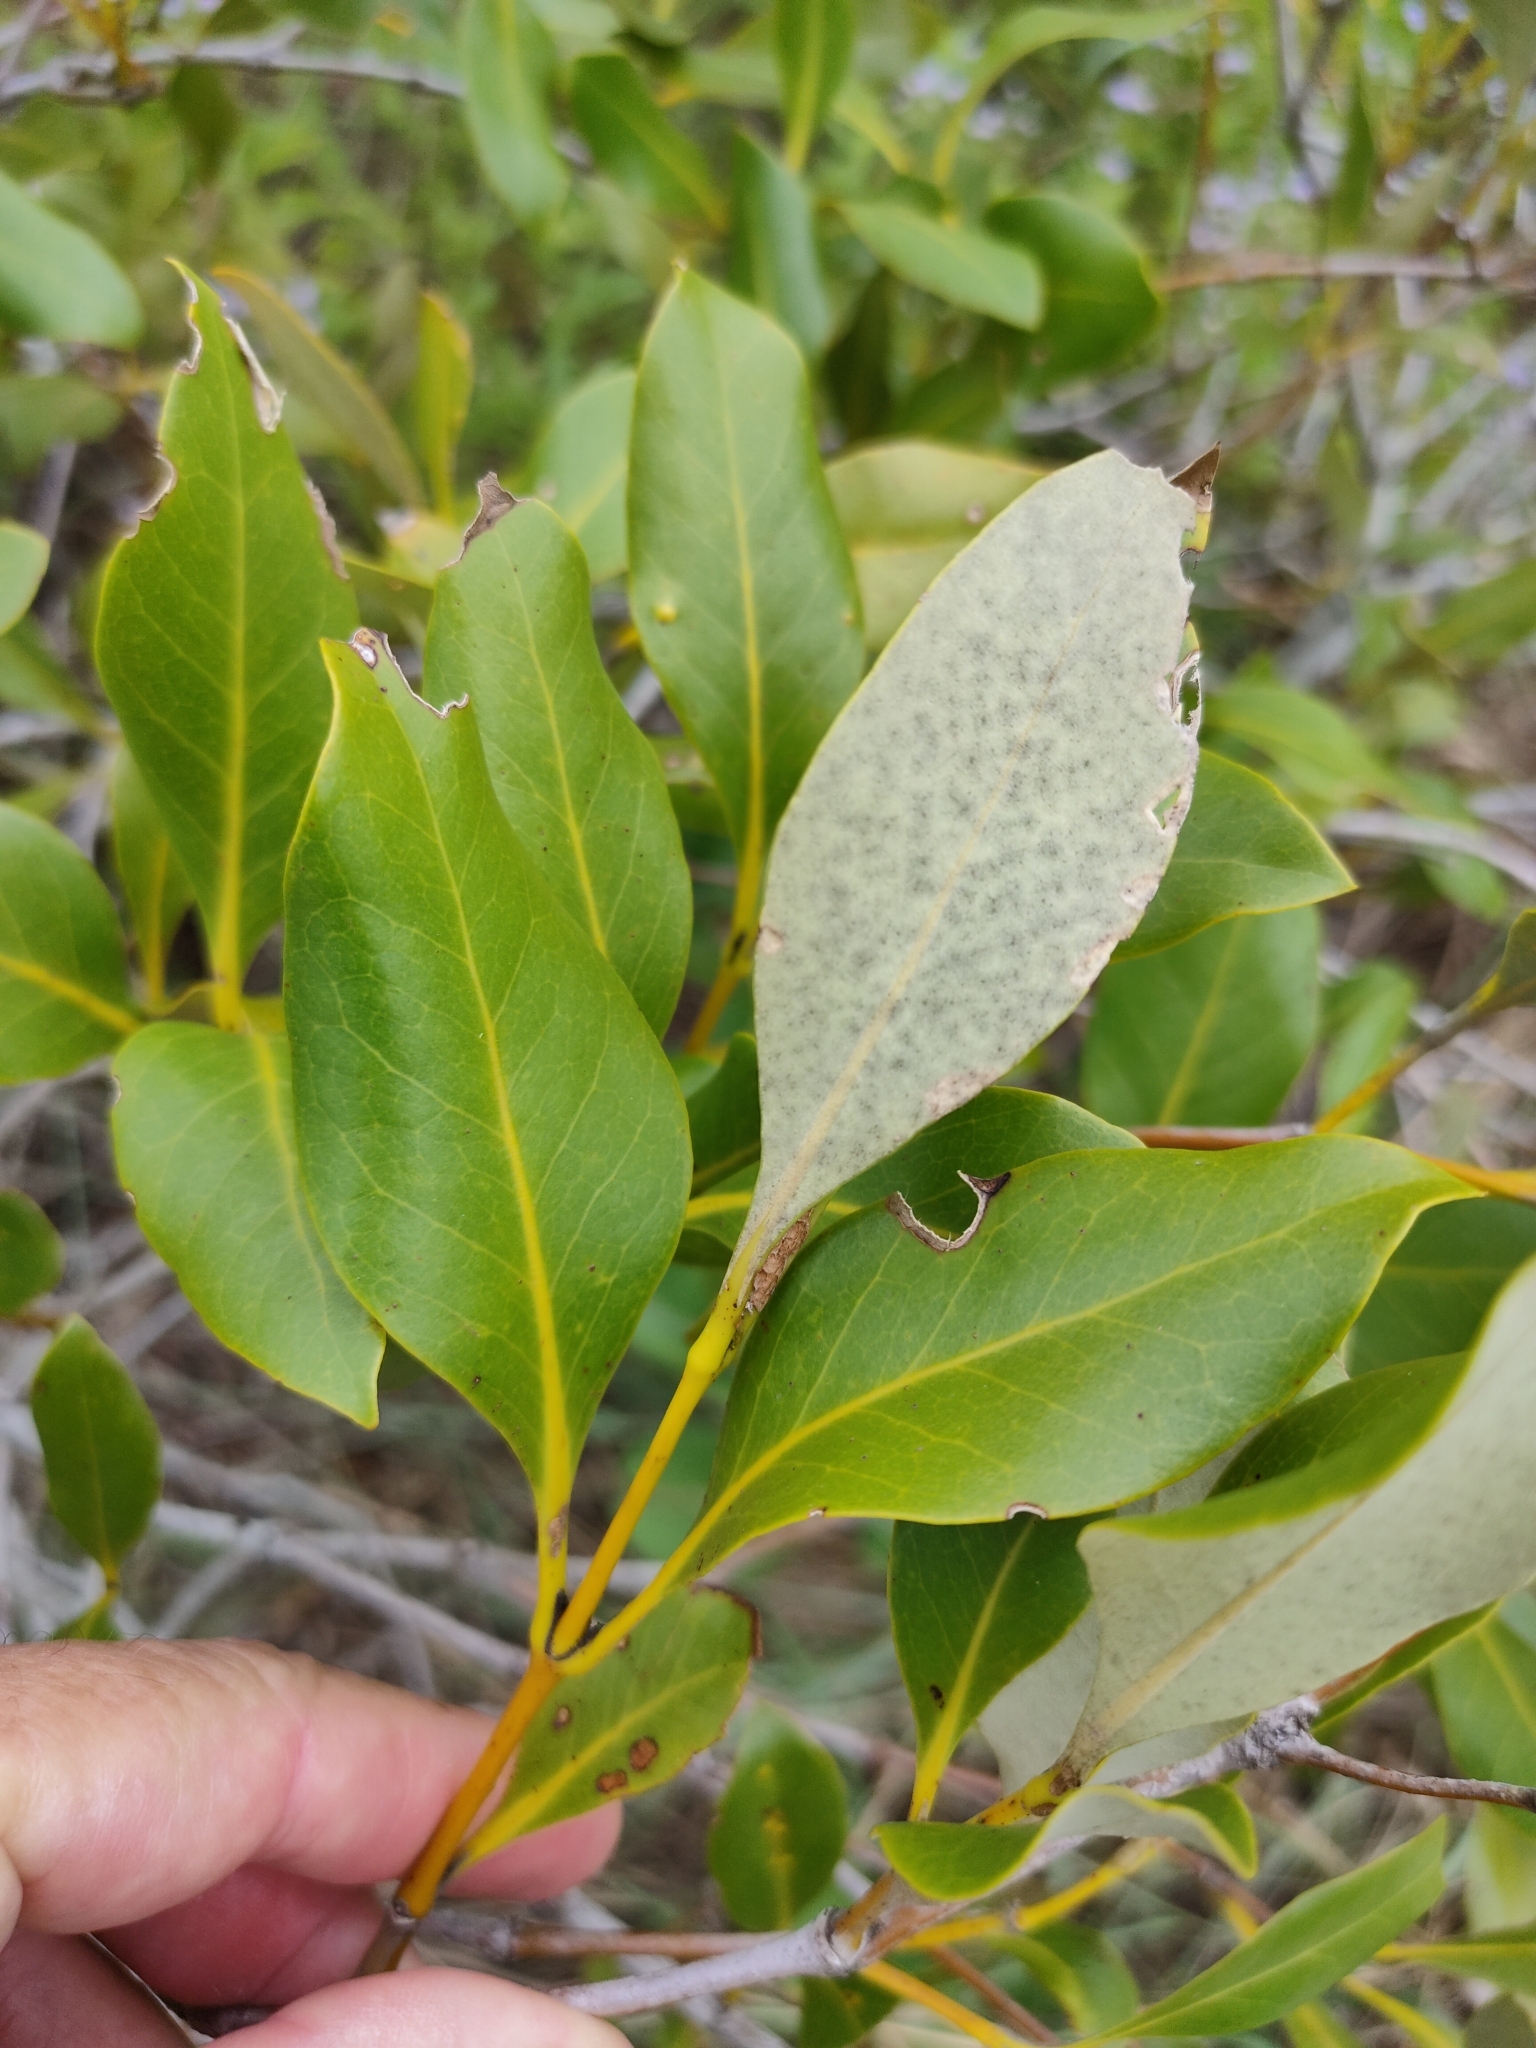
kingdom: Plantae
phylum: Tracheophyta
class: Magnoliopsida
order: Lamiales
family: Acanthaceae
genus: Avicennia
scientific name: Avicennia marina
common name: Gray mangrove
